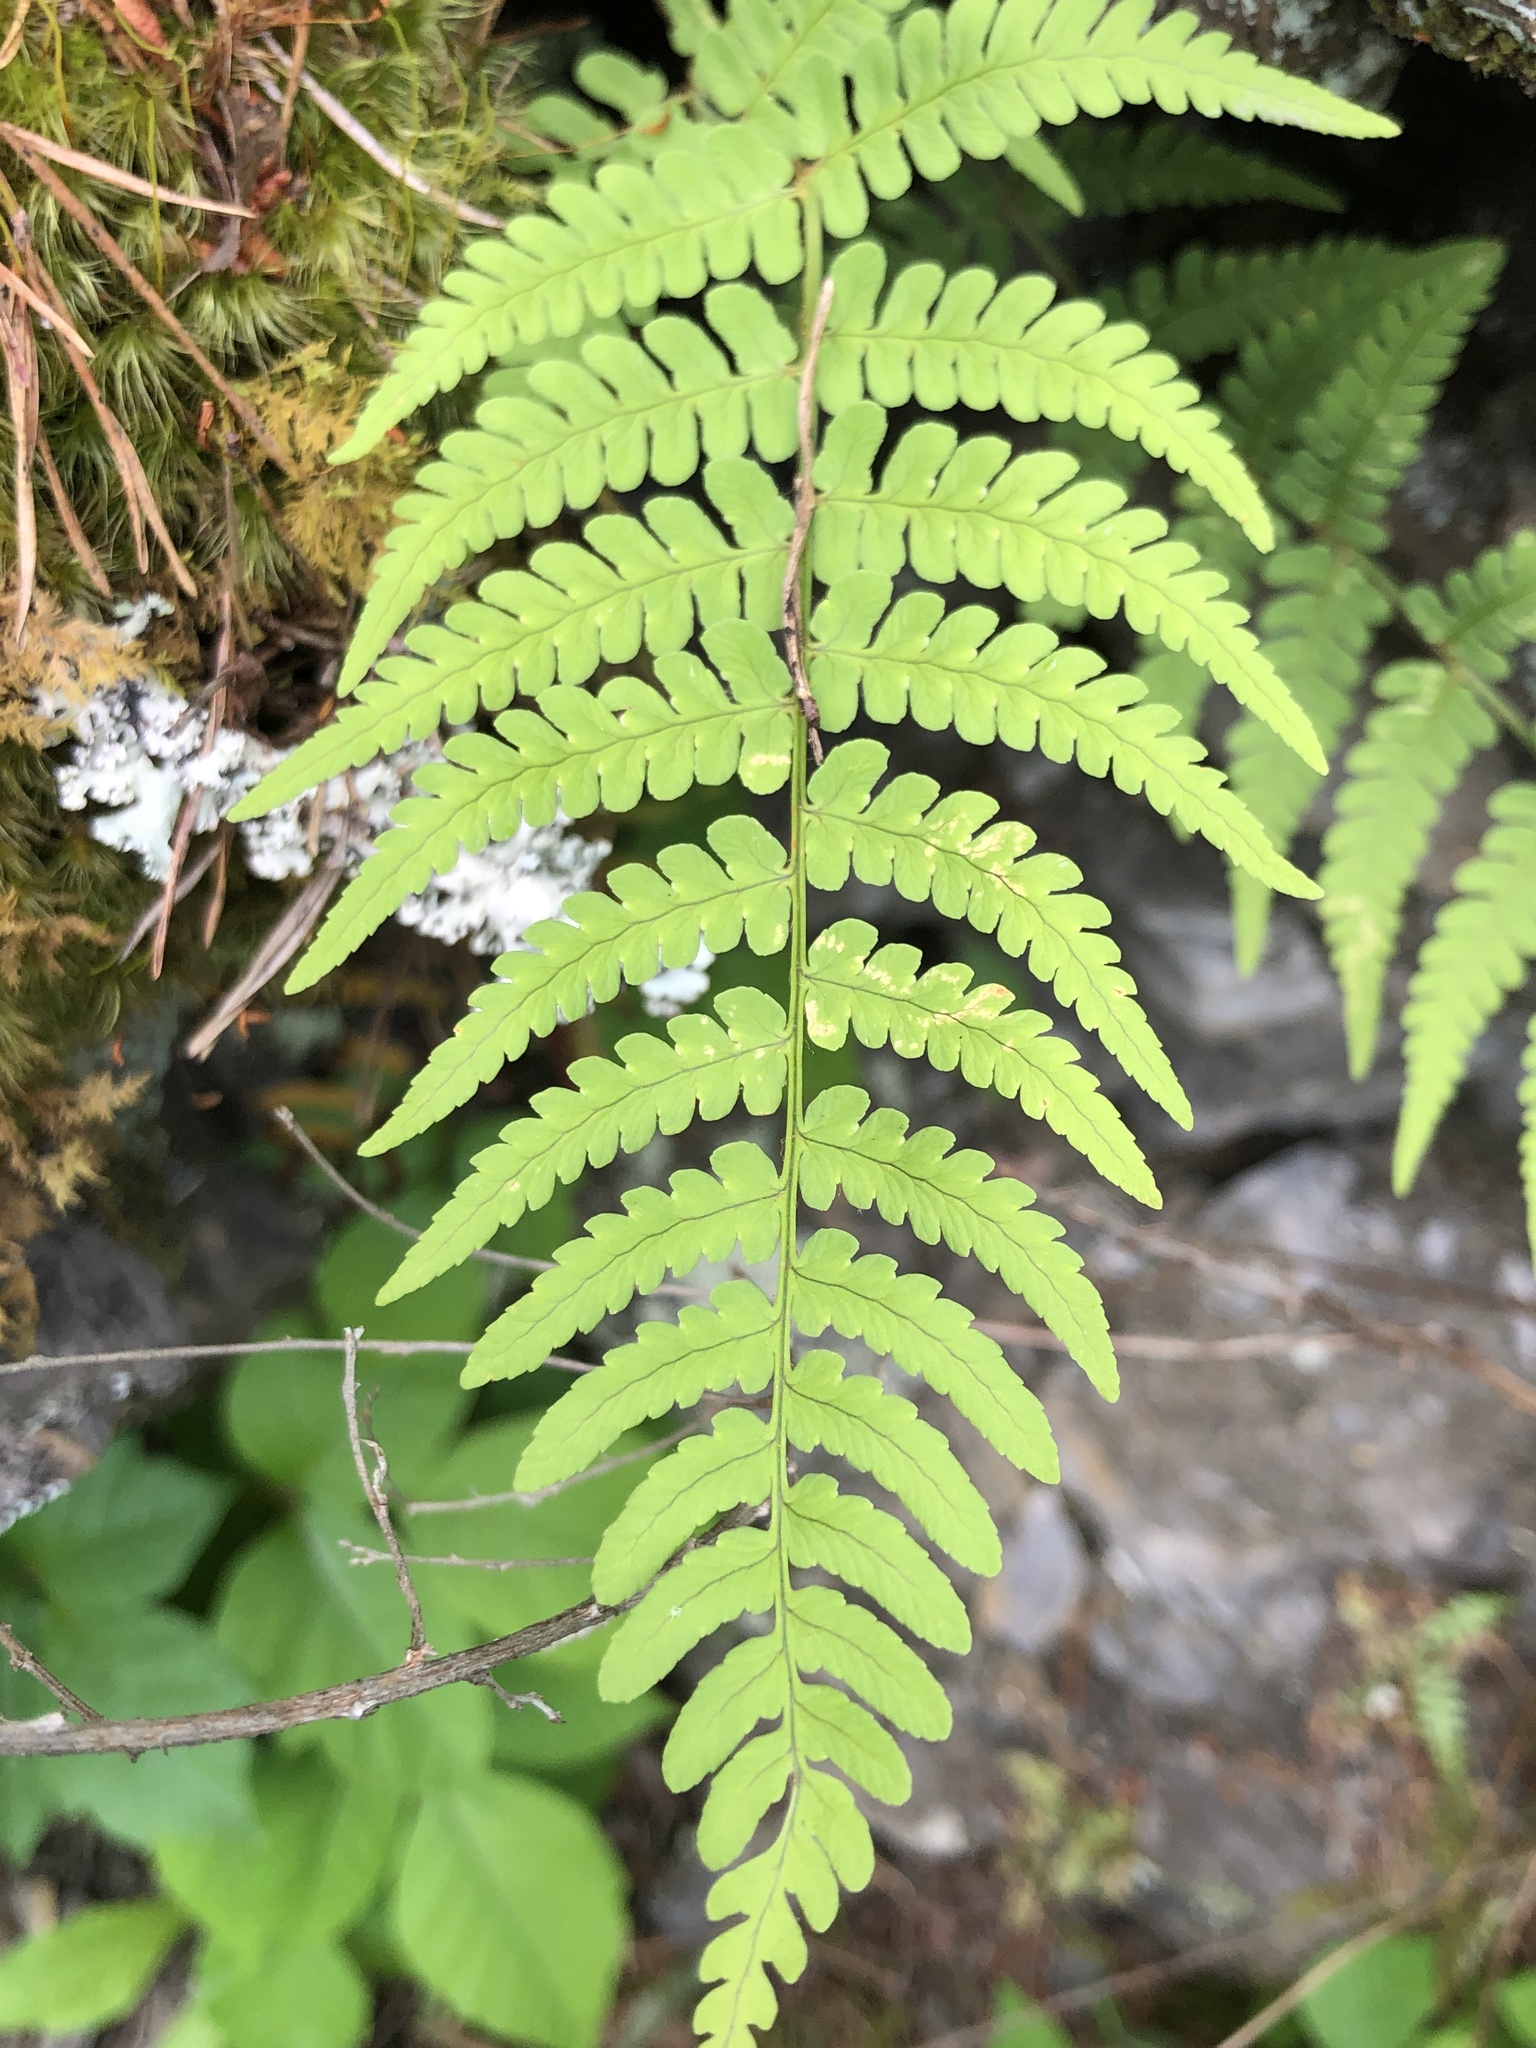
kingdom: Plantae
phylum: Tracheophyta
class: Polypodiopsida
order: Polypodiales
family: Dryopteridaceae
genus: Dryopteris
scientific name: Dryopteris marginalis
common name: Marginal wood fern
